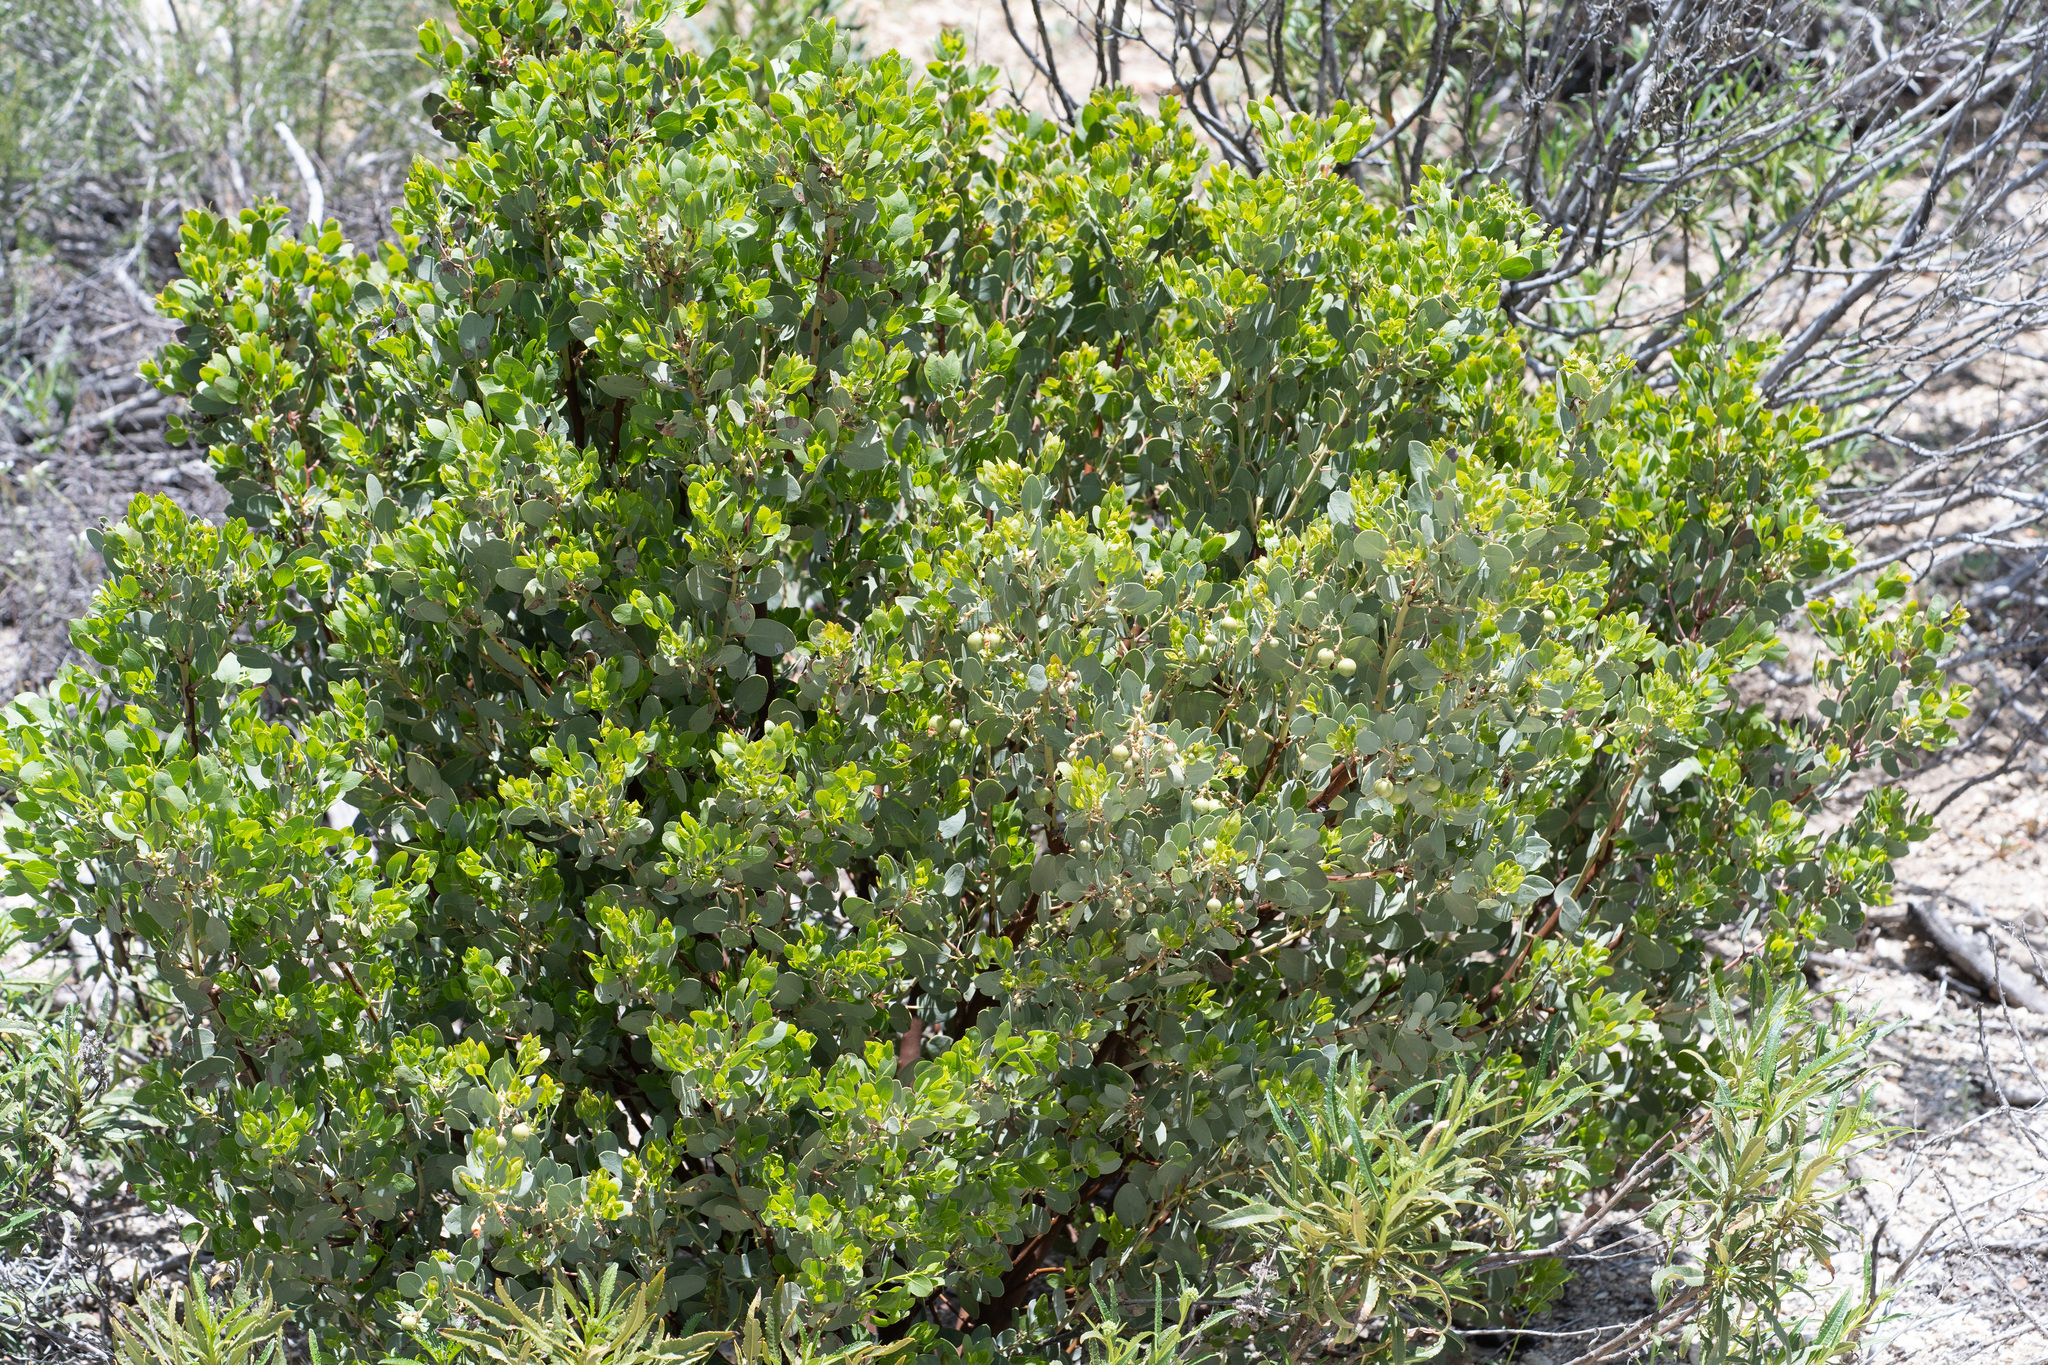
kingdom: Plantae
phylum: Tracheophyta
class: Magnoliopsida
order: Ericales
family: Ericaceae
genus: Arctostaphylos
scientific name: Arctostaphylos glauca
